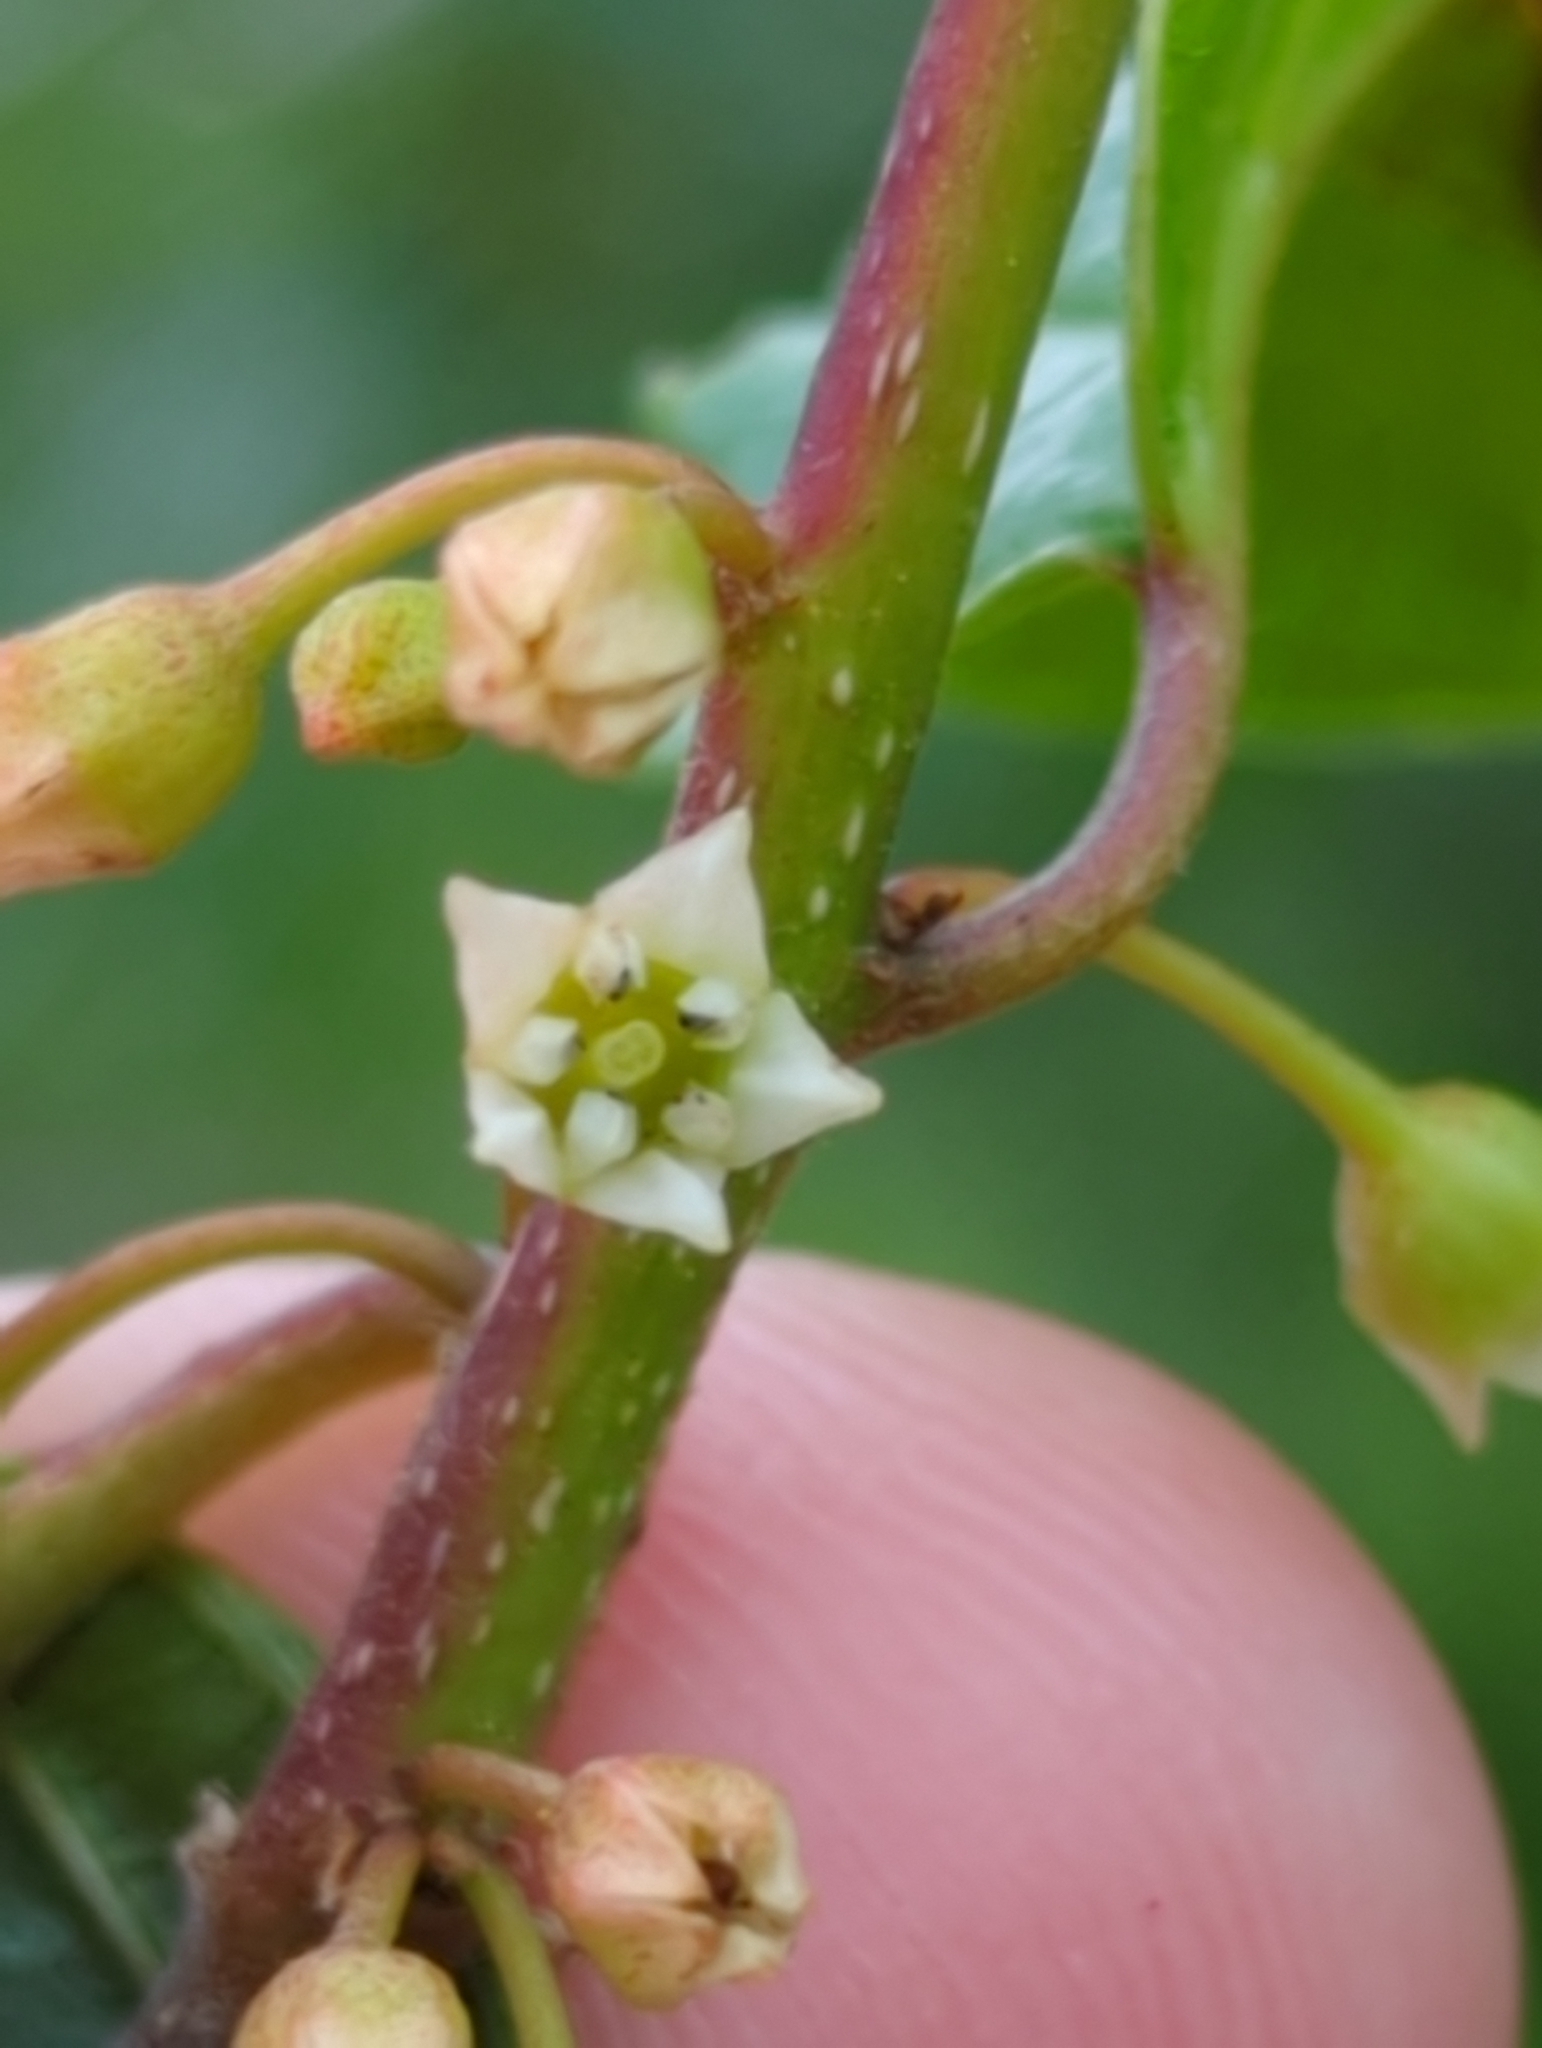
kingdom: Plantae
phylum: Tracheophyta
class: Magnoliopsida
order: Rosales
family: Rhamnaceae
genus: Frangula
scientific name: Frangula alnus
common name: Alder buckthorn
